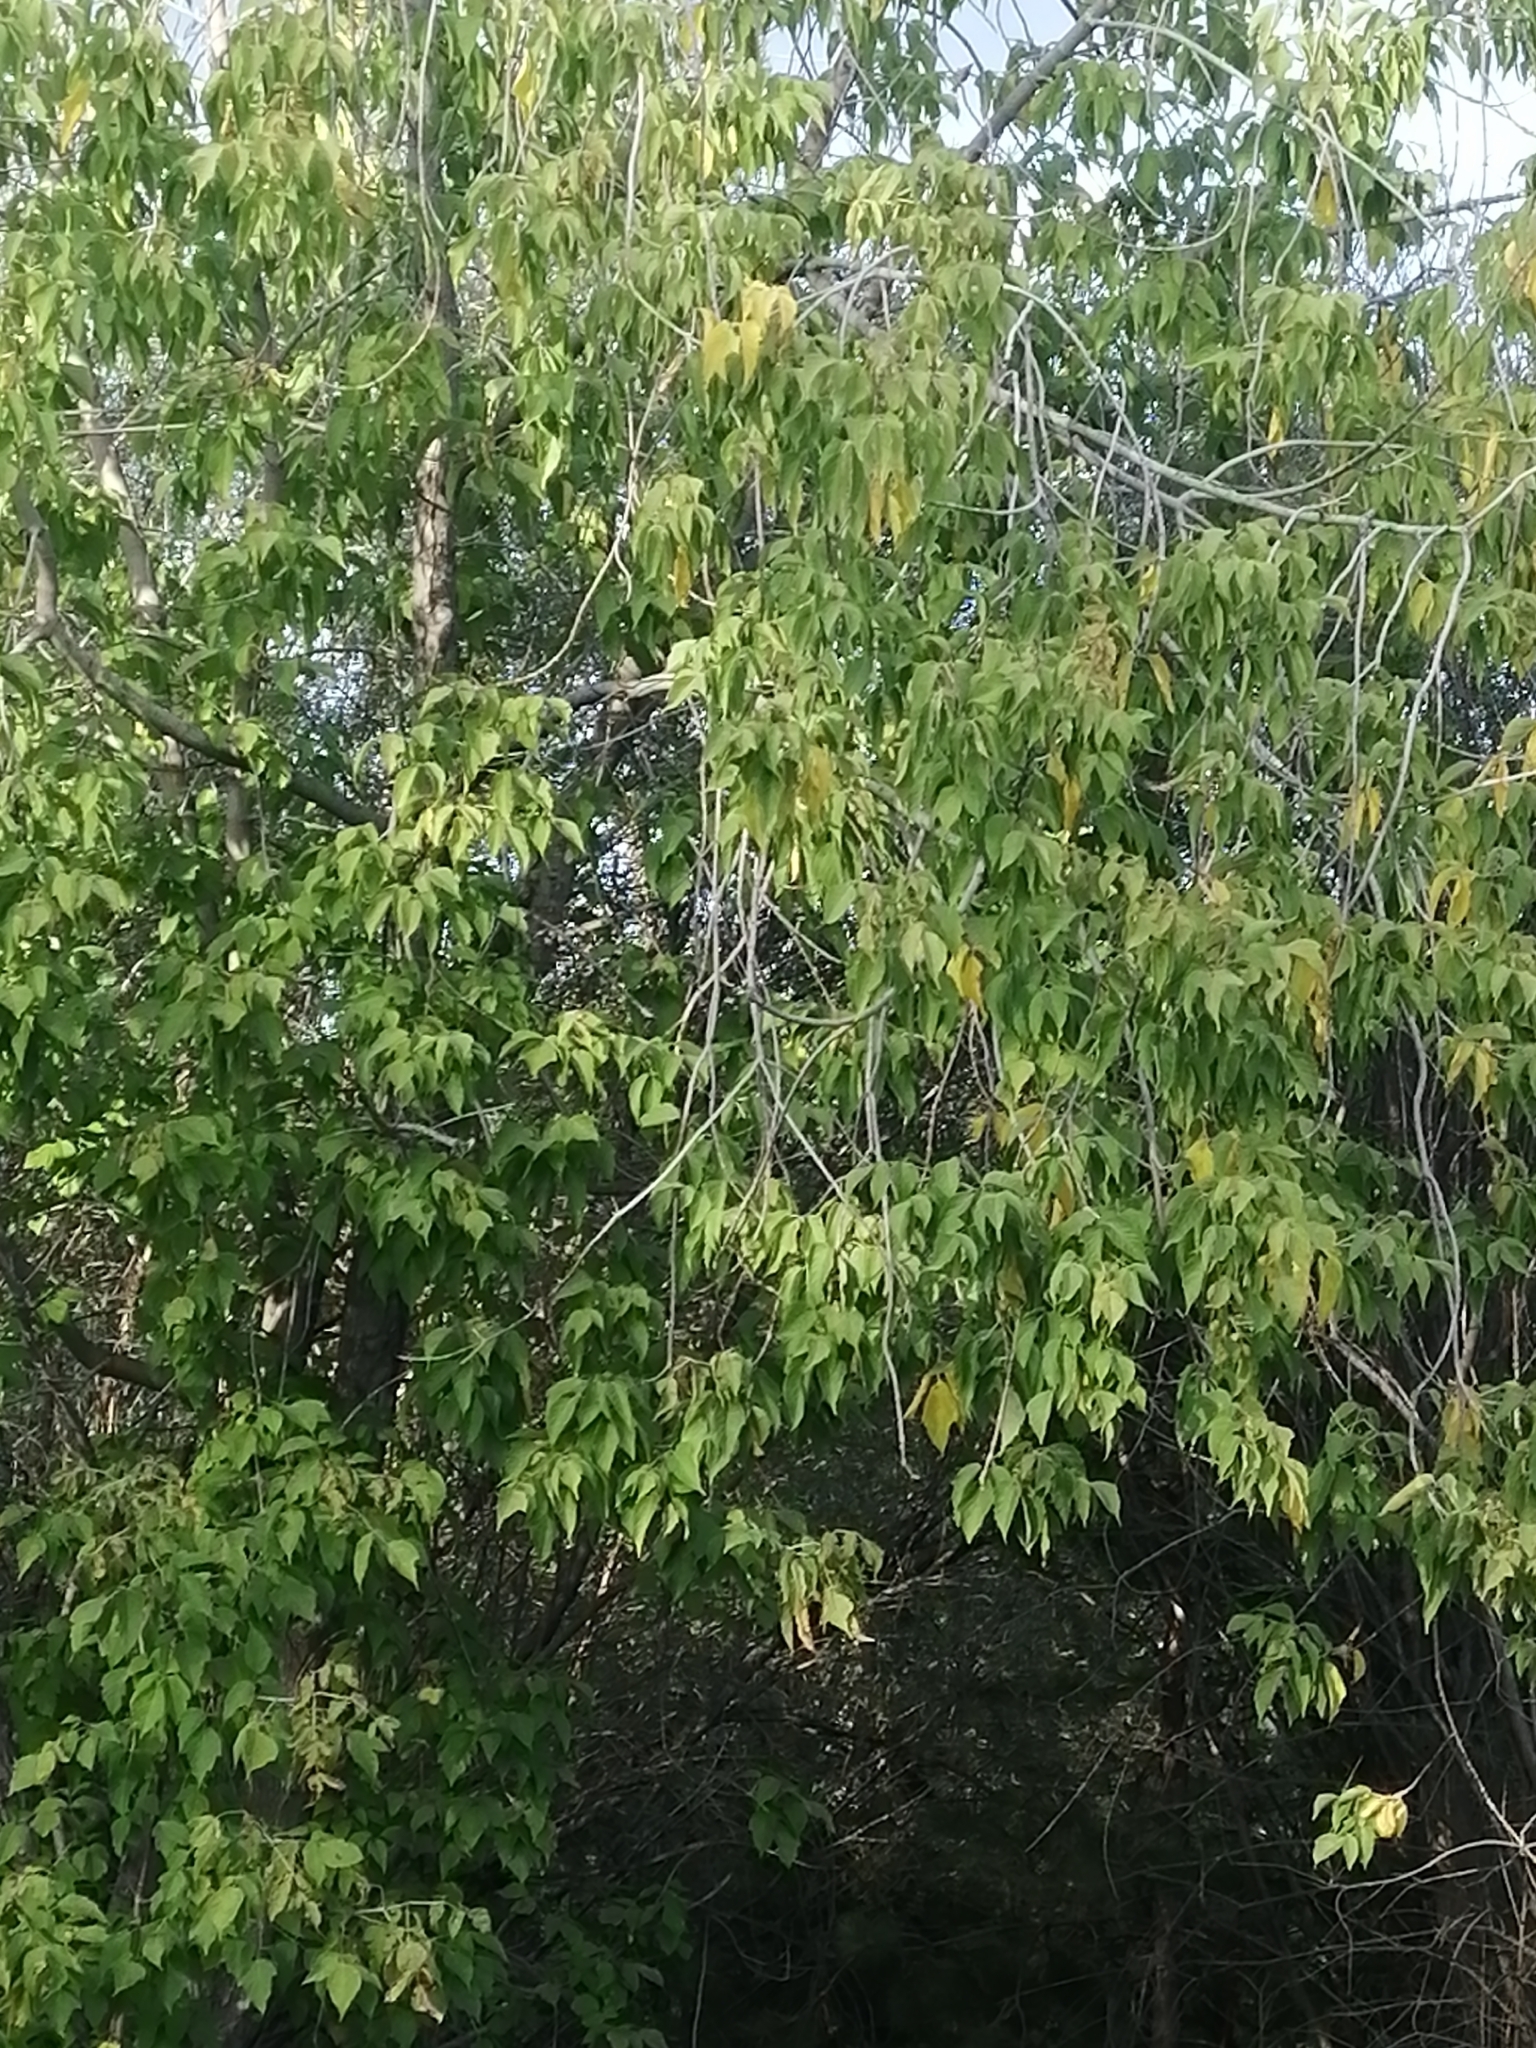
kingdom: Plantae
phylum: Tracheophyta
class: Magnoliopsida
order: Sapindales
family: Sapindaceae
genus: Acer
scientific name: Acer negundo
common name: Ashleaf maple
